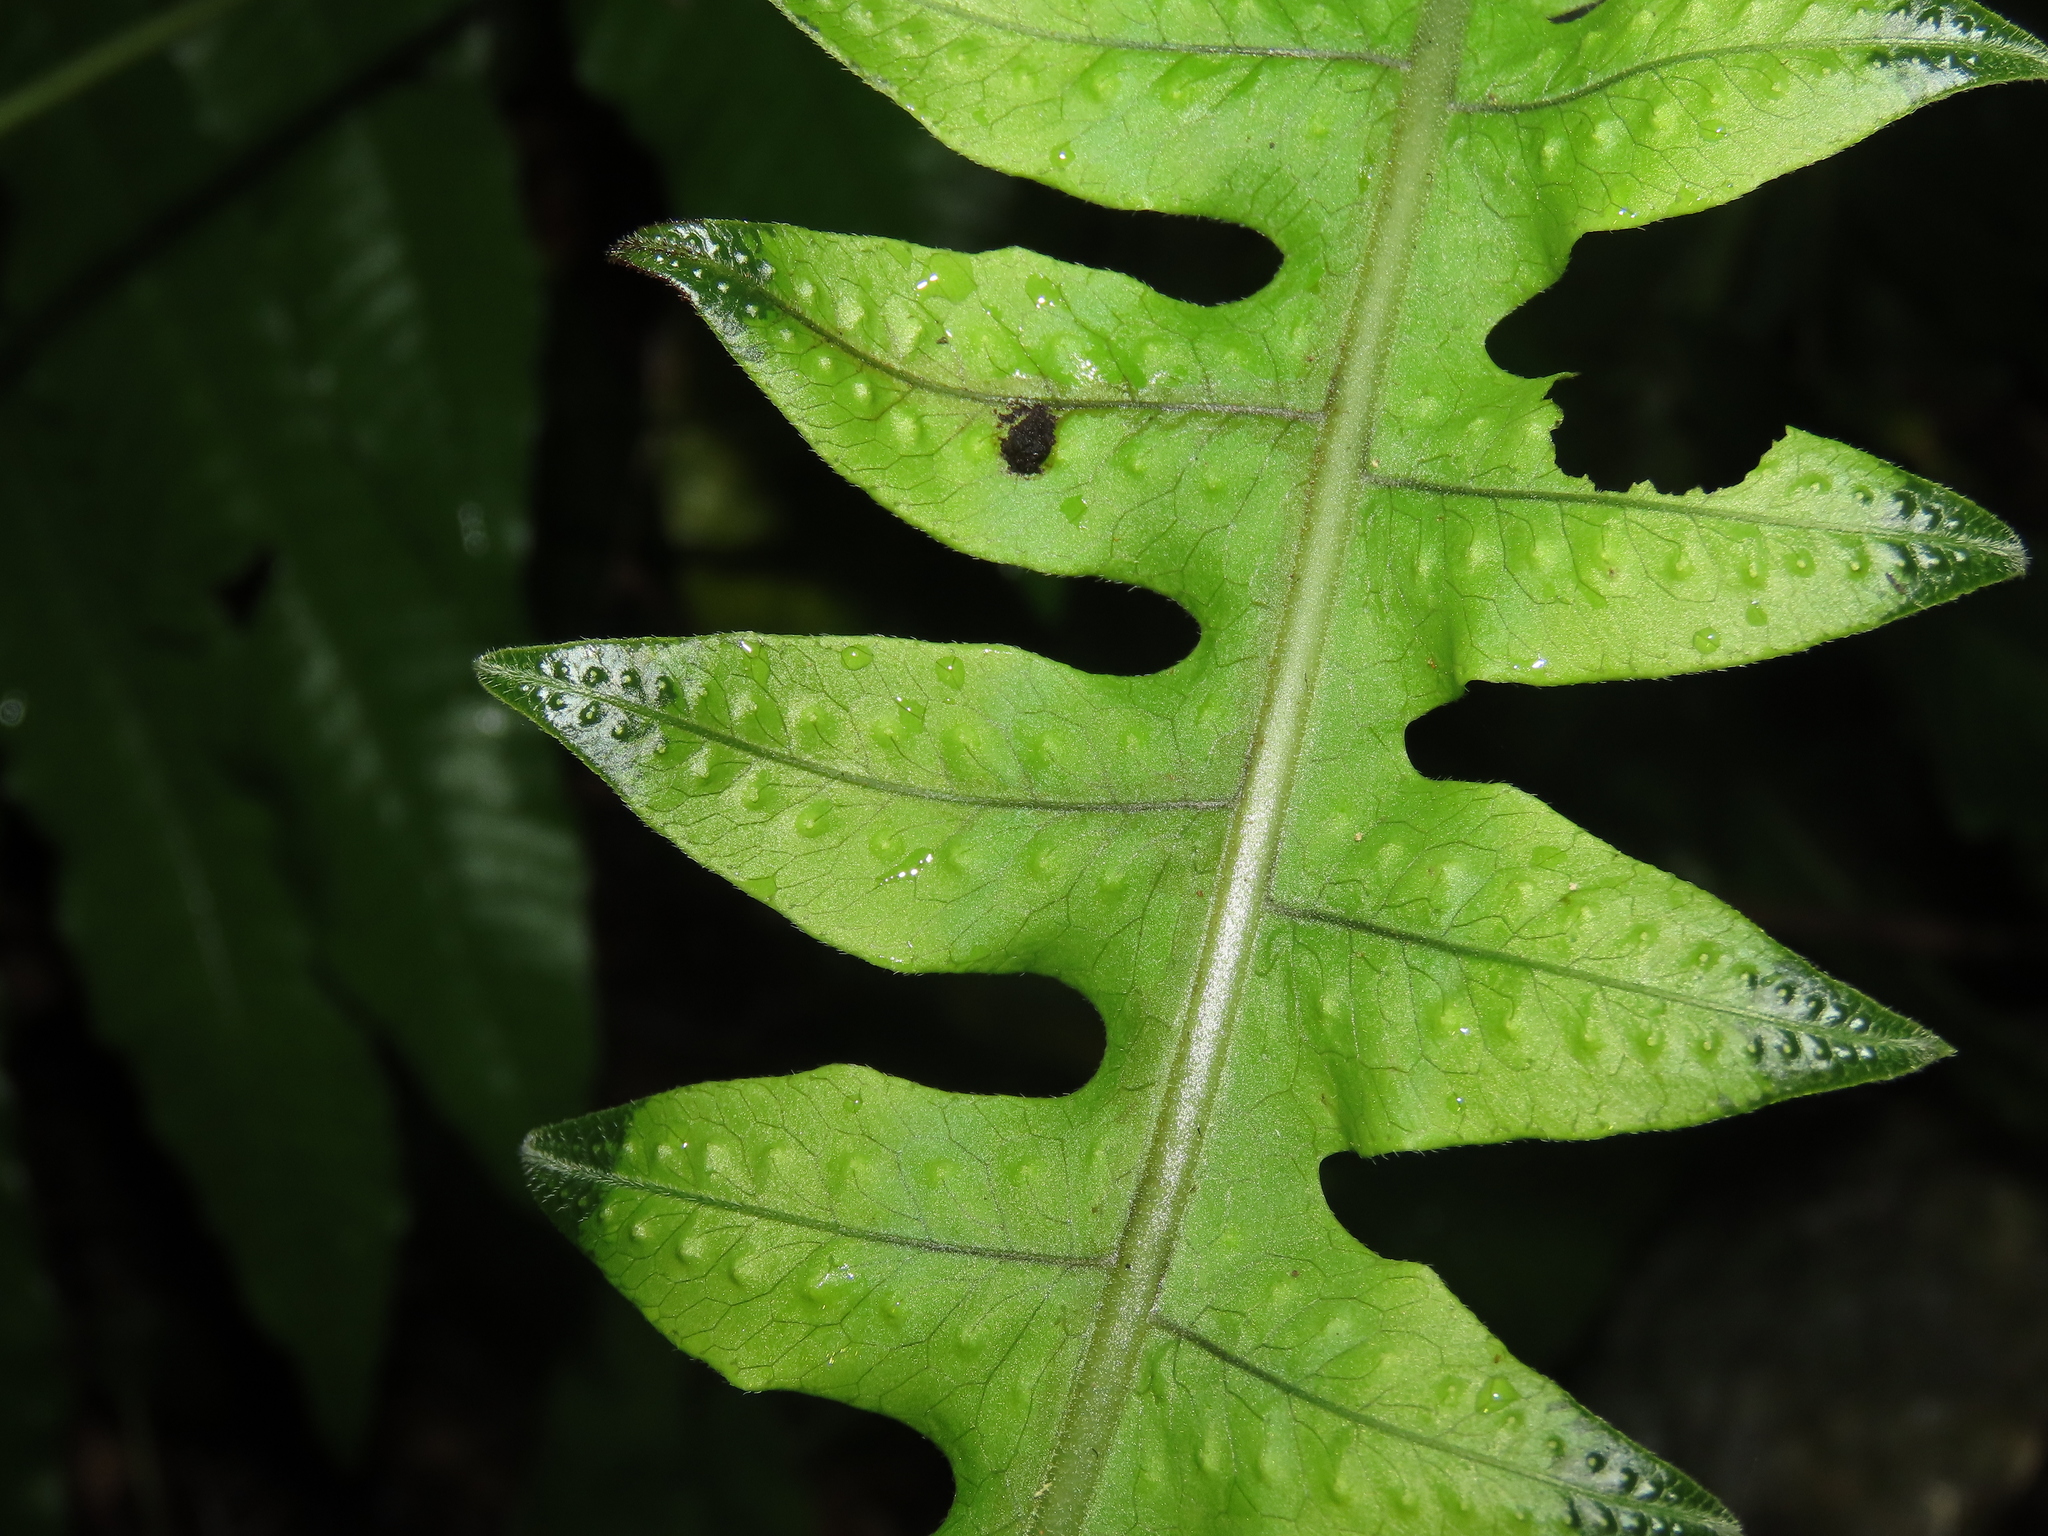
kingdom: Plantae
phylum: Tracheophyta
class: Polypodiopsida
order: Polypodiales
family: Polypodiaceae
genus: Goniophlebium
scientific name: Goniophlebium formosanum
